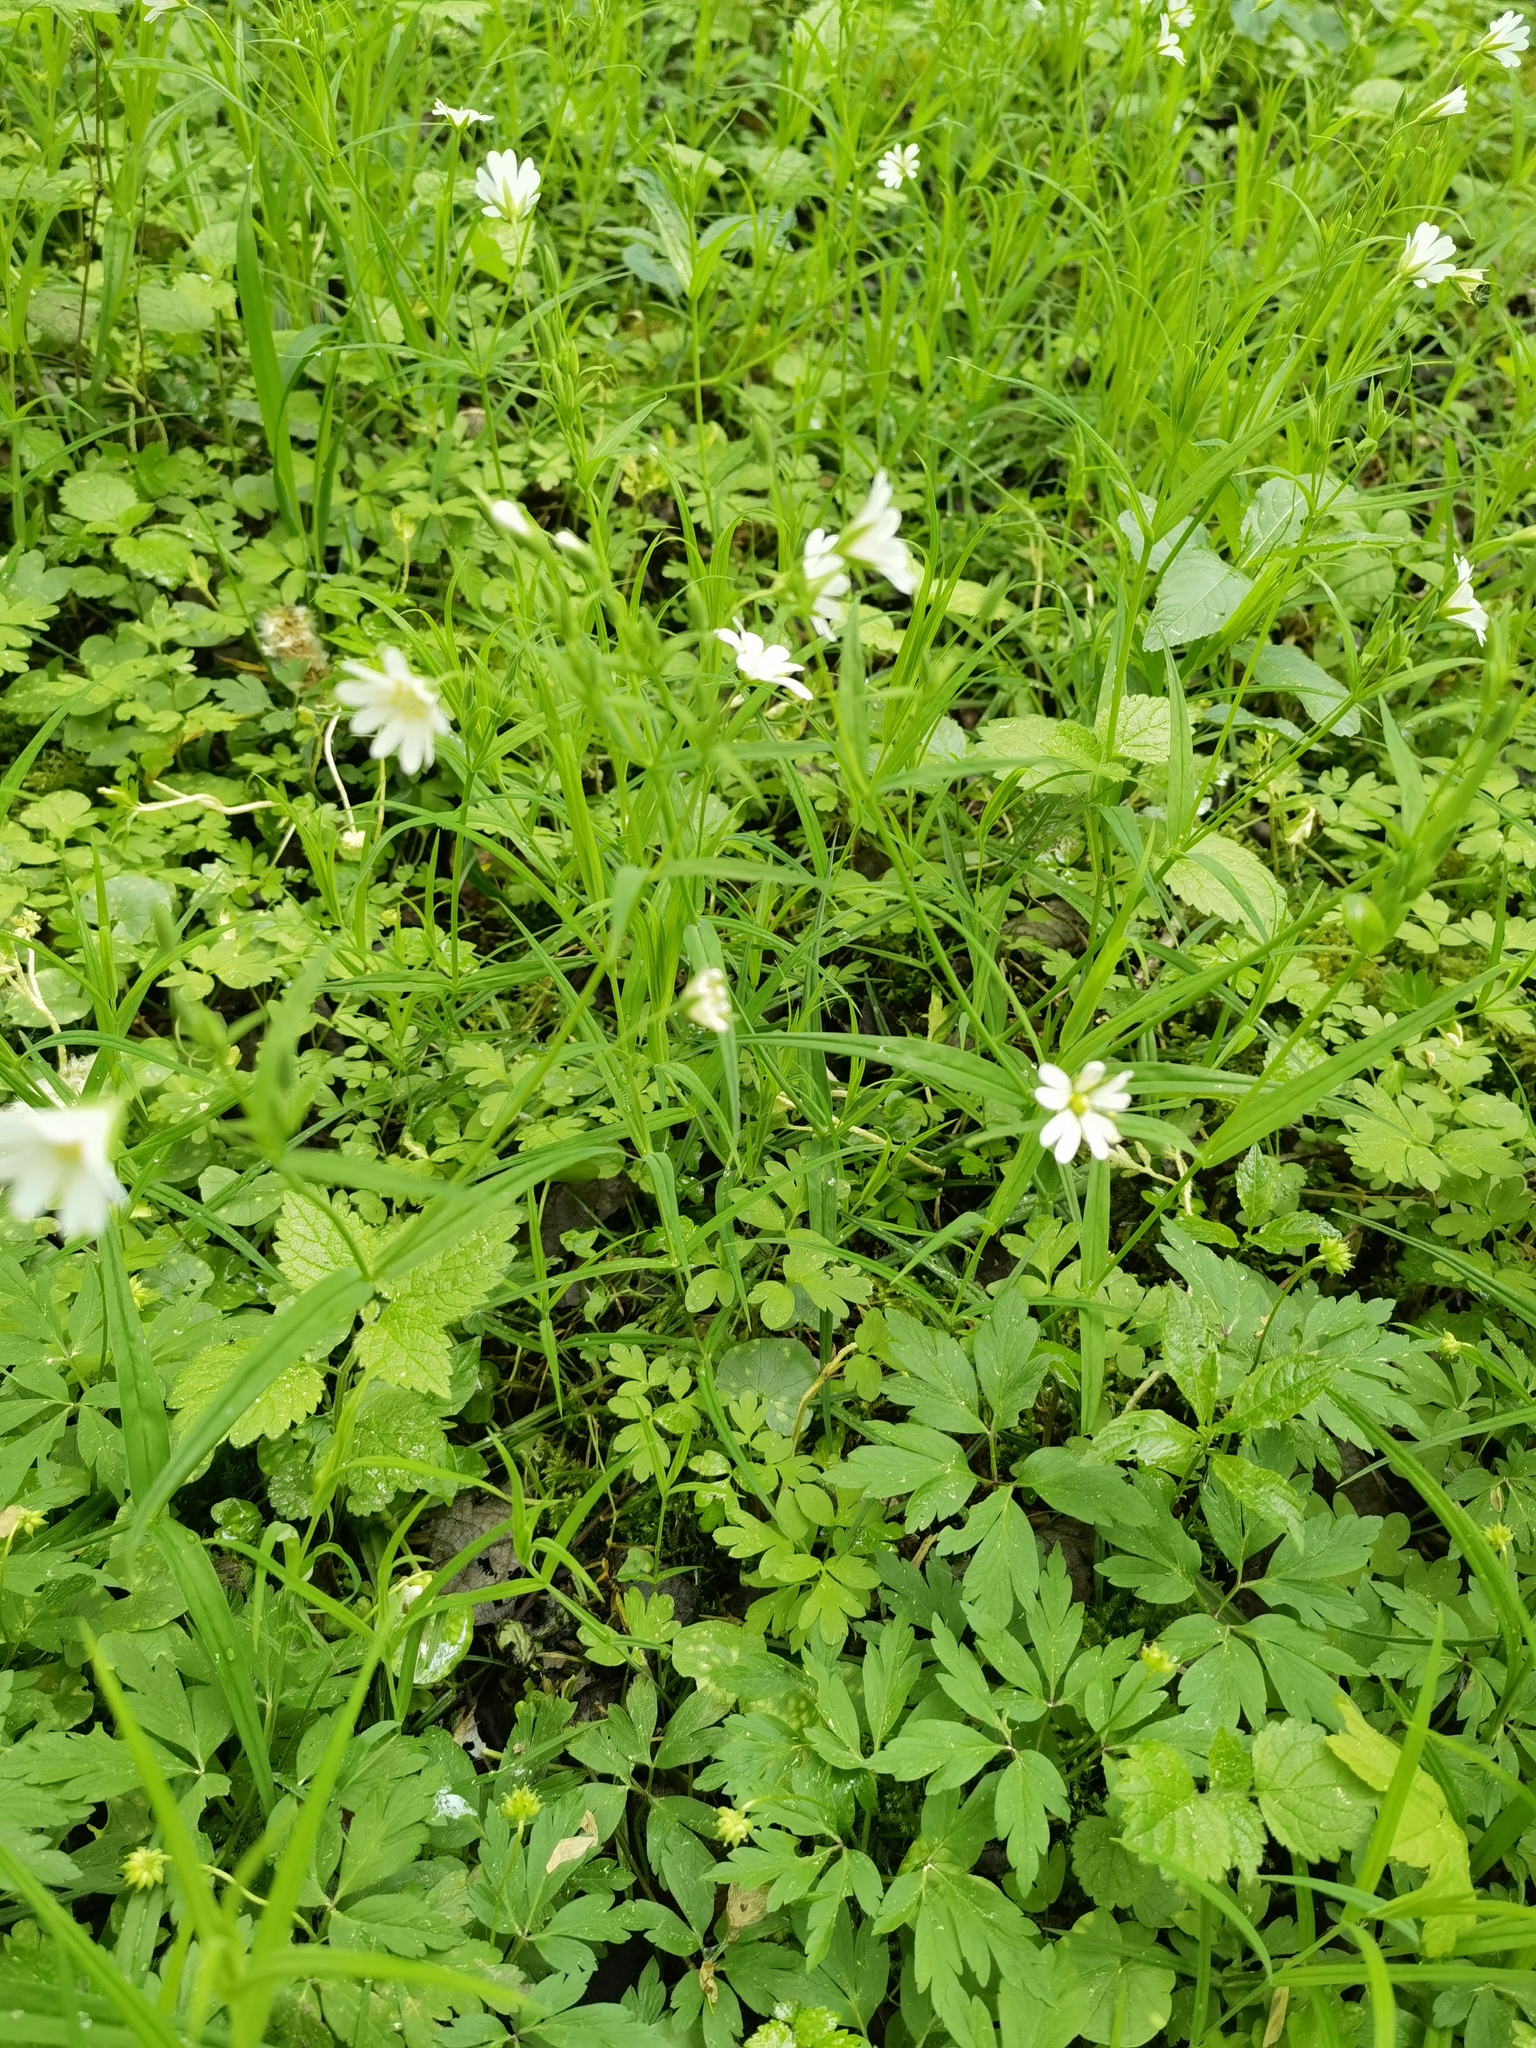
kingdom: Plantae
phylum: Tracheophyta
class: Magnoliopsida
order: Caryophyllales
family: Caryophyllaceae
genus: Rabelera
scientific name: Rabelera holostea
